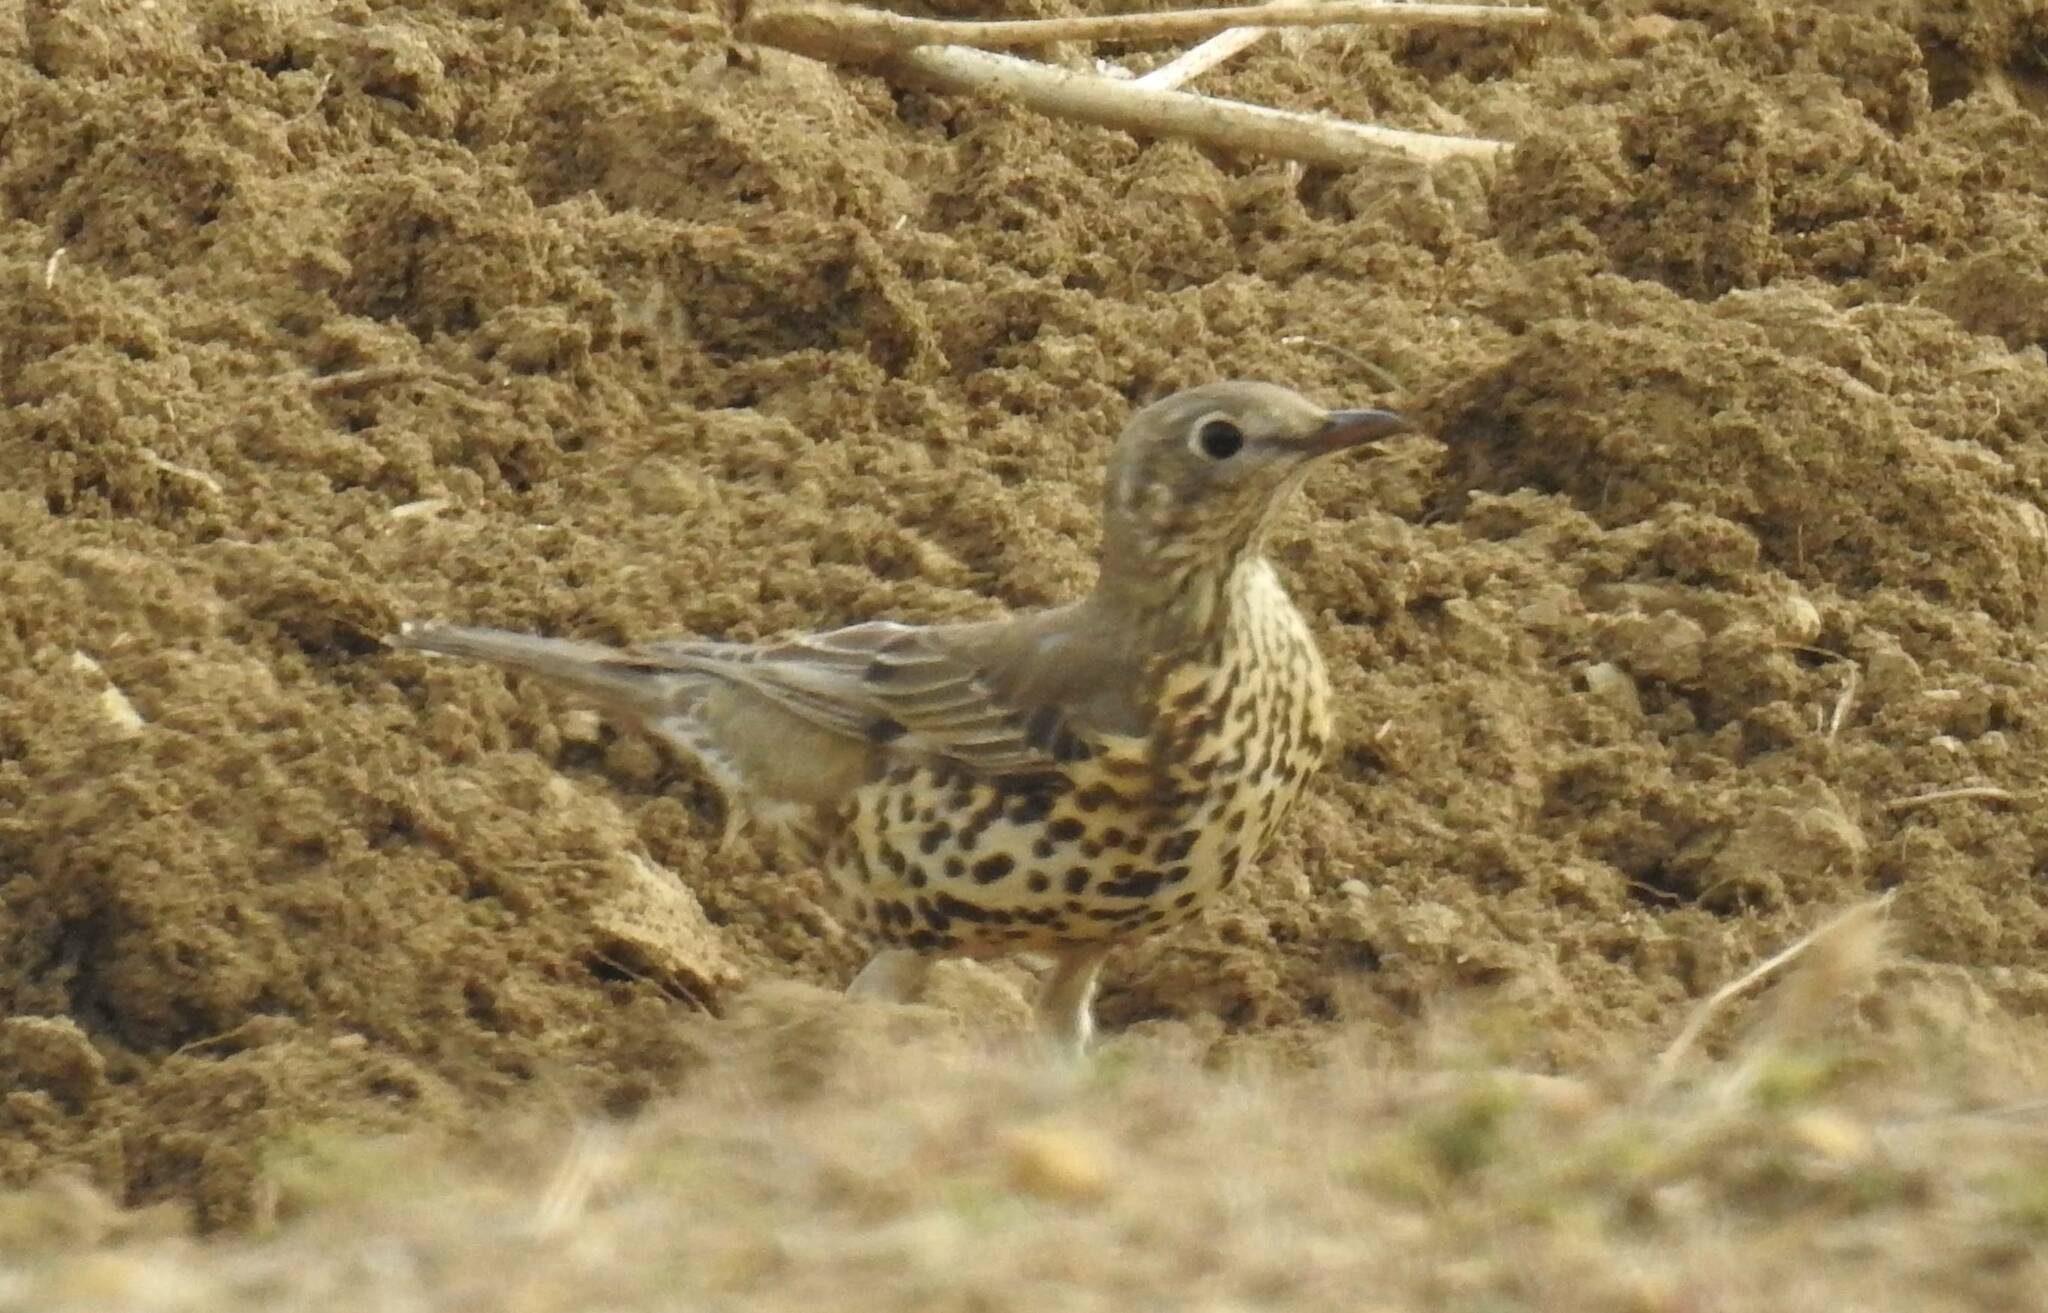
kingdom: Animalia
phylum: Chordata
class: Aves
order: Passeriformes
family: Turdidae
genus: Turdus
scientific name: Turdus viscivorus
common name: Mistle thrush
